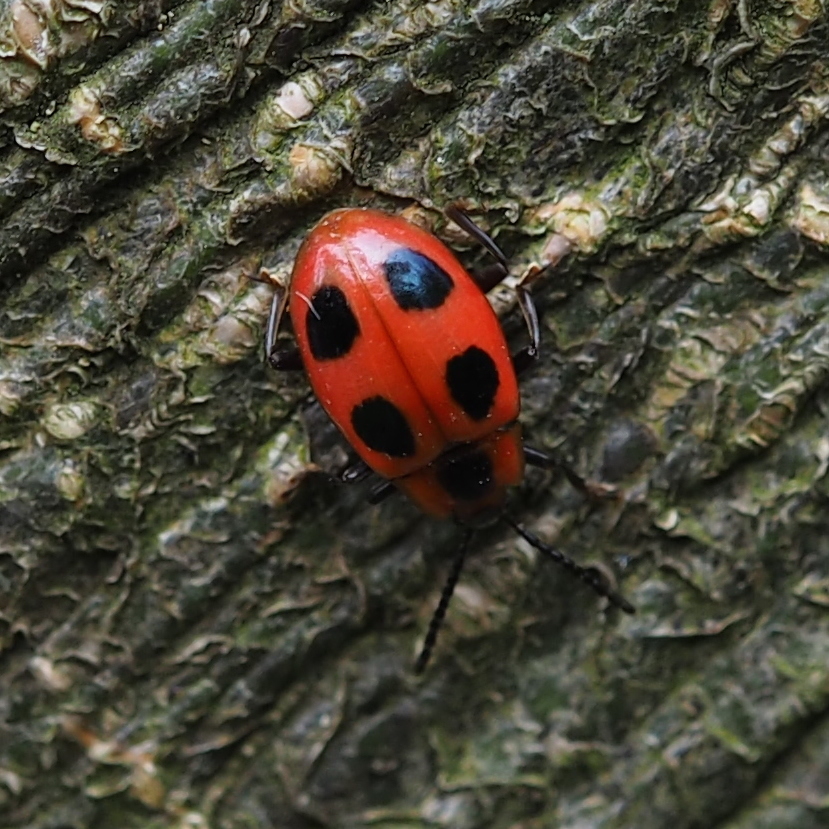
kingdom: Animalia
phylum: Arthropoda
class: Insecta
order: Coleoptera
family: Endomychidae
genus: Endomychus
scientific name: Endomychus coccineus
